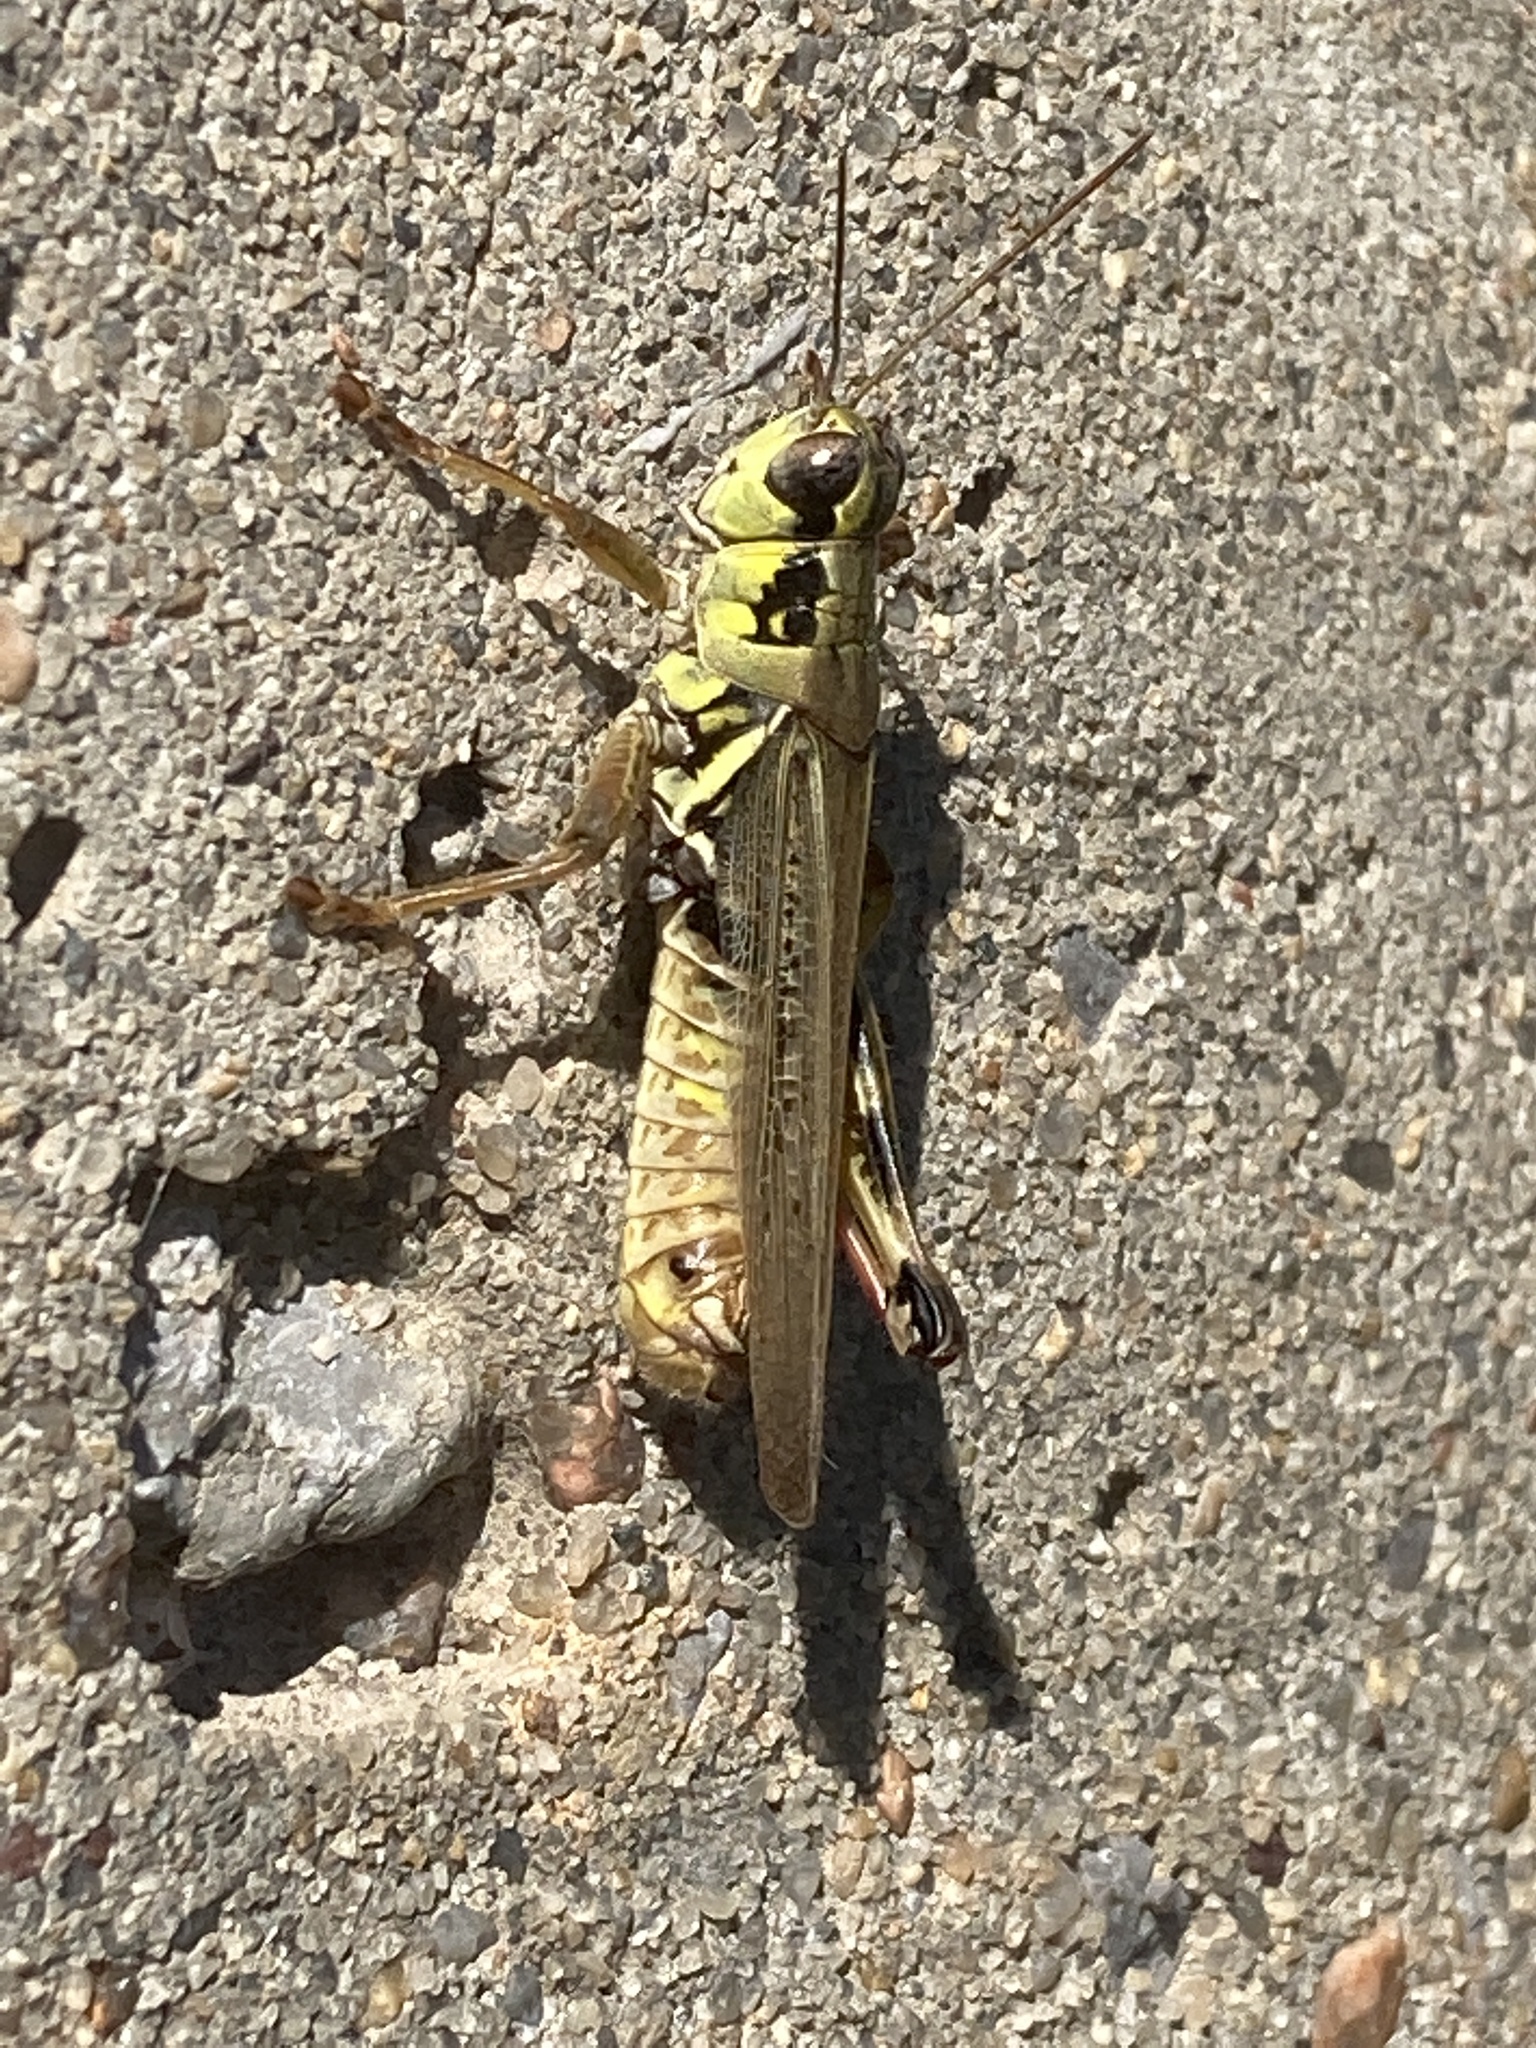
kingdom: Animalia
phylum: Arthropoda
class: Insecta
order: Orthoptera
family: Acrididae
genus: Melanoplus
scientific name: Melanoplus femurrubrum
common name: Red-legged grasshopper
